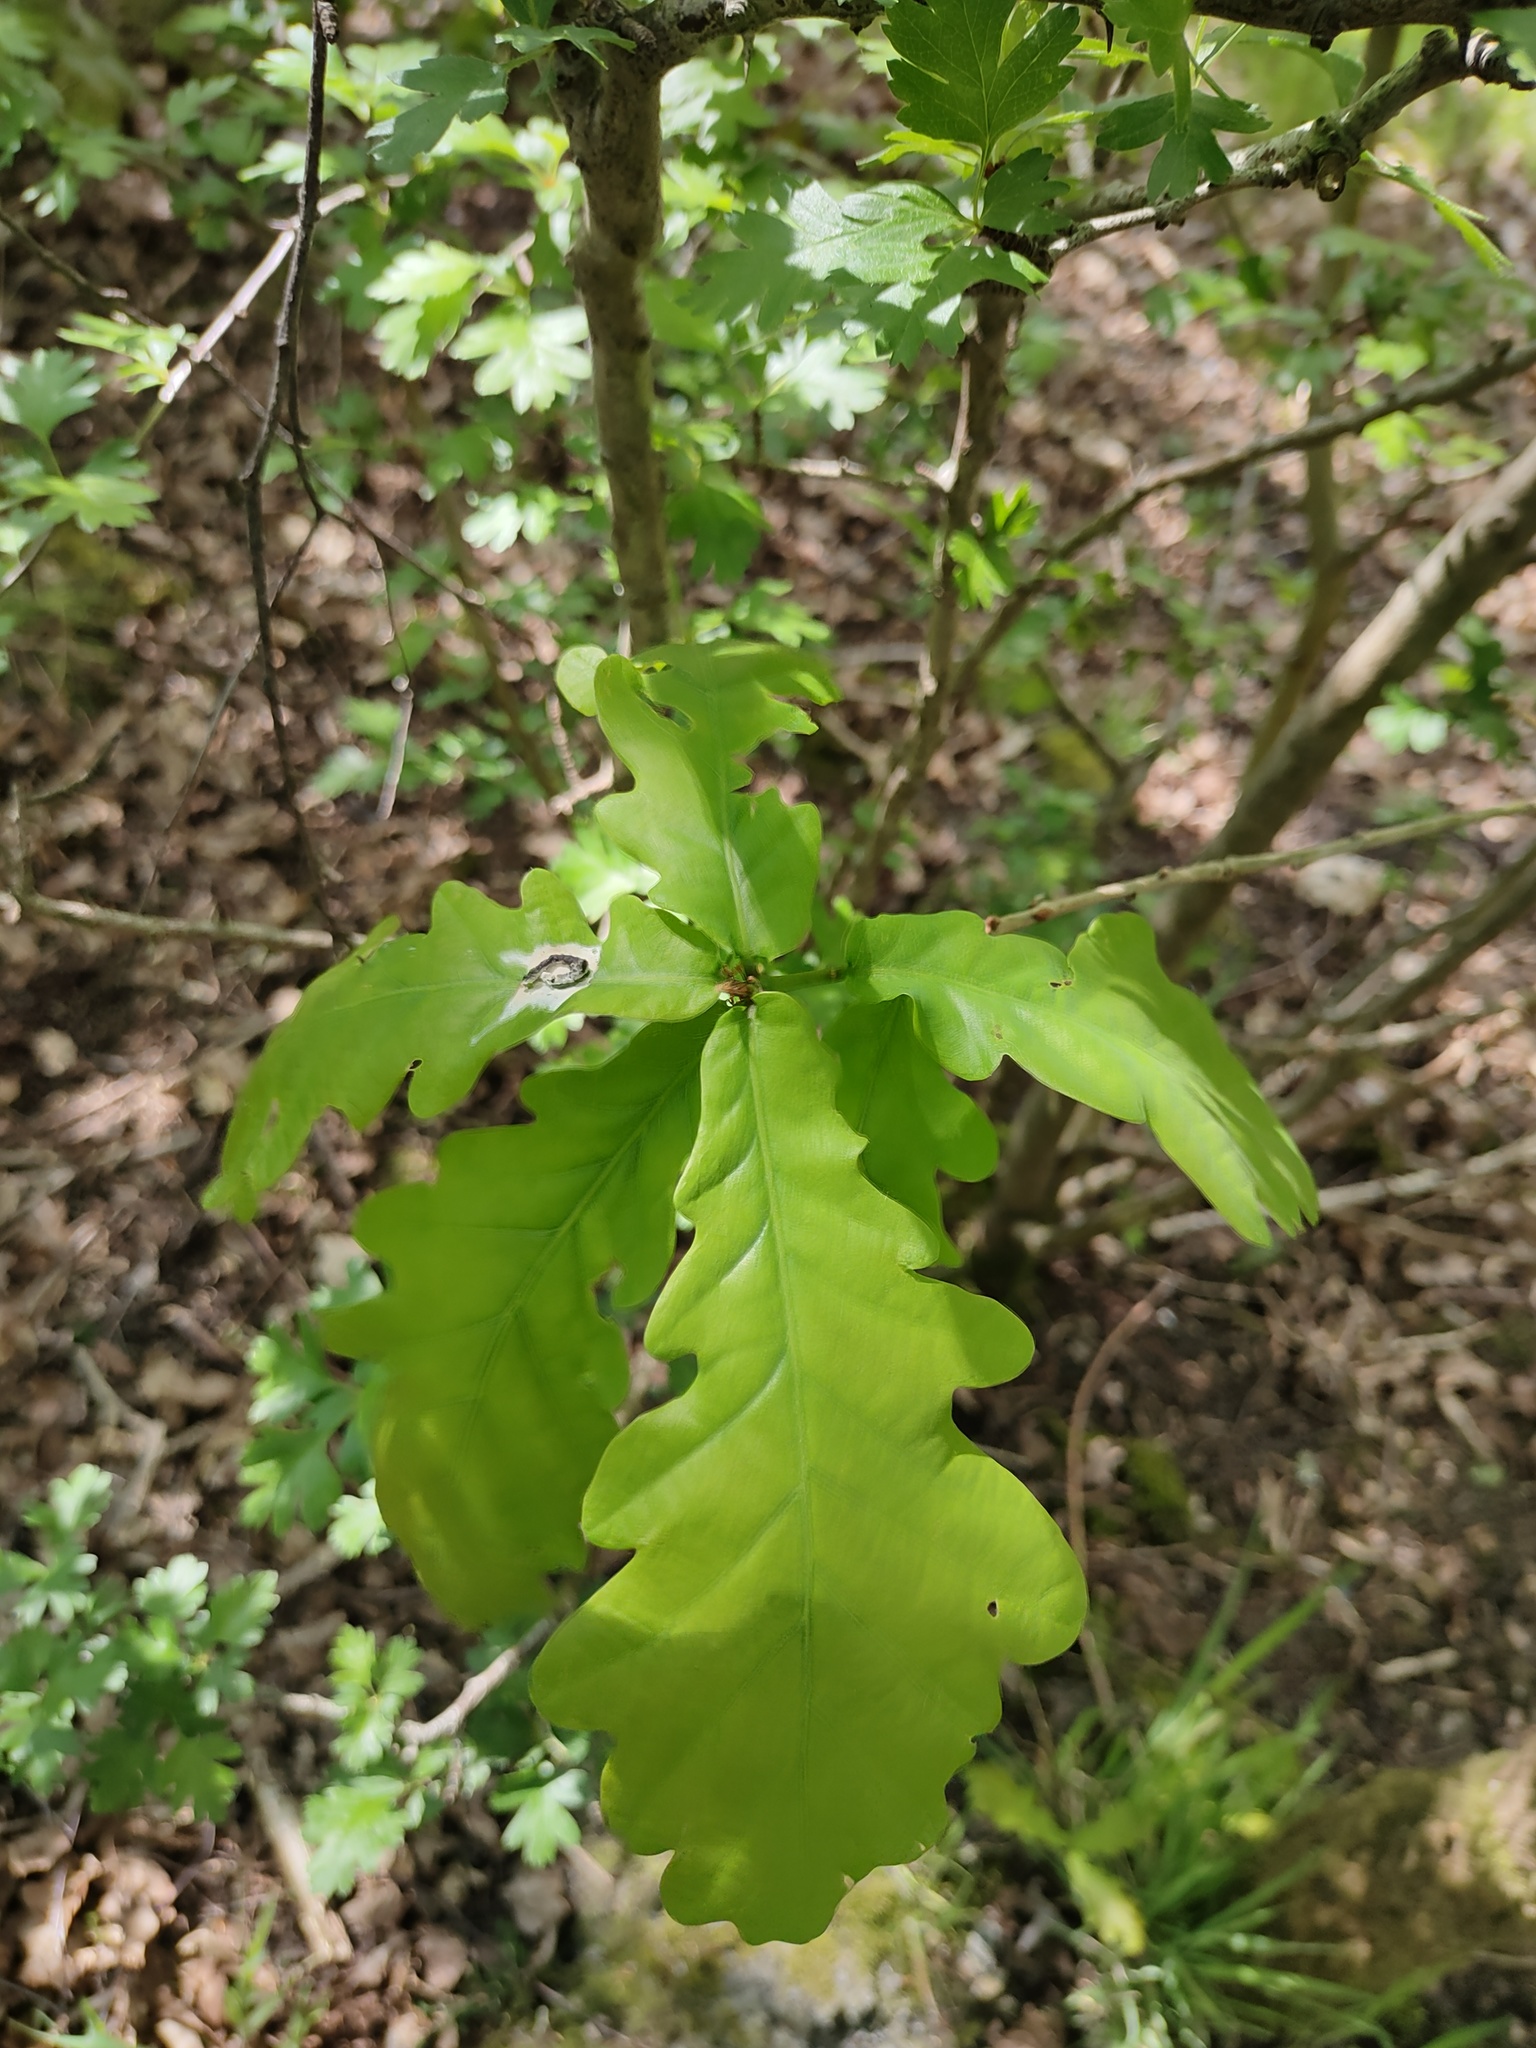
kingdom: Plantae
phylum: Tracheophyta
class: Magnoliopsida
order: Fagales
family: Fagaceae
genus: Quercus
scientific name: Quercus robur
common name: Pedunculate oak
